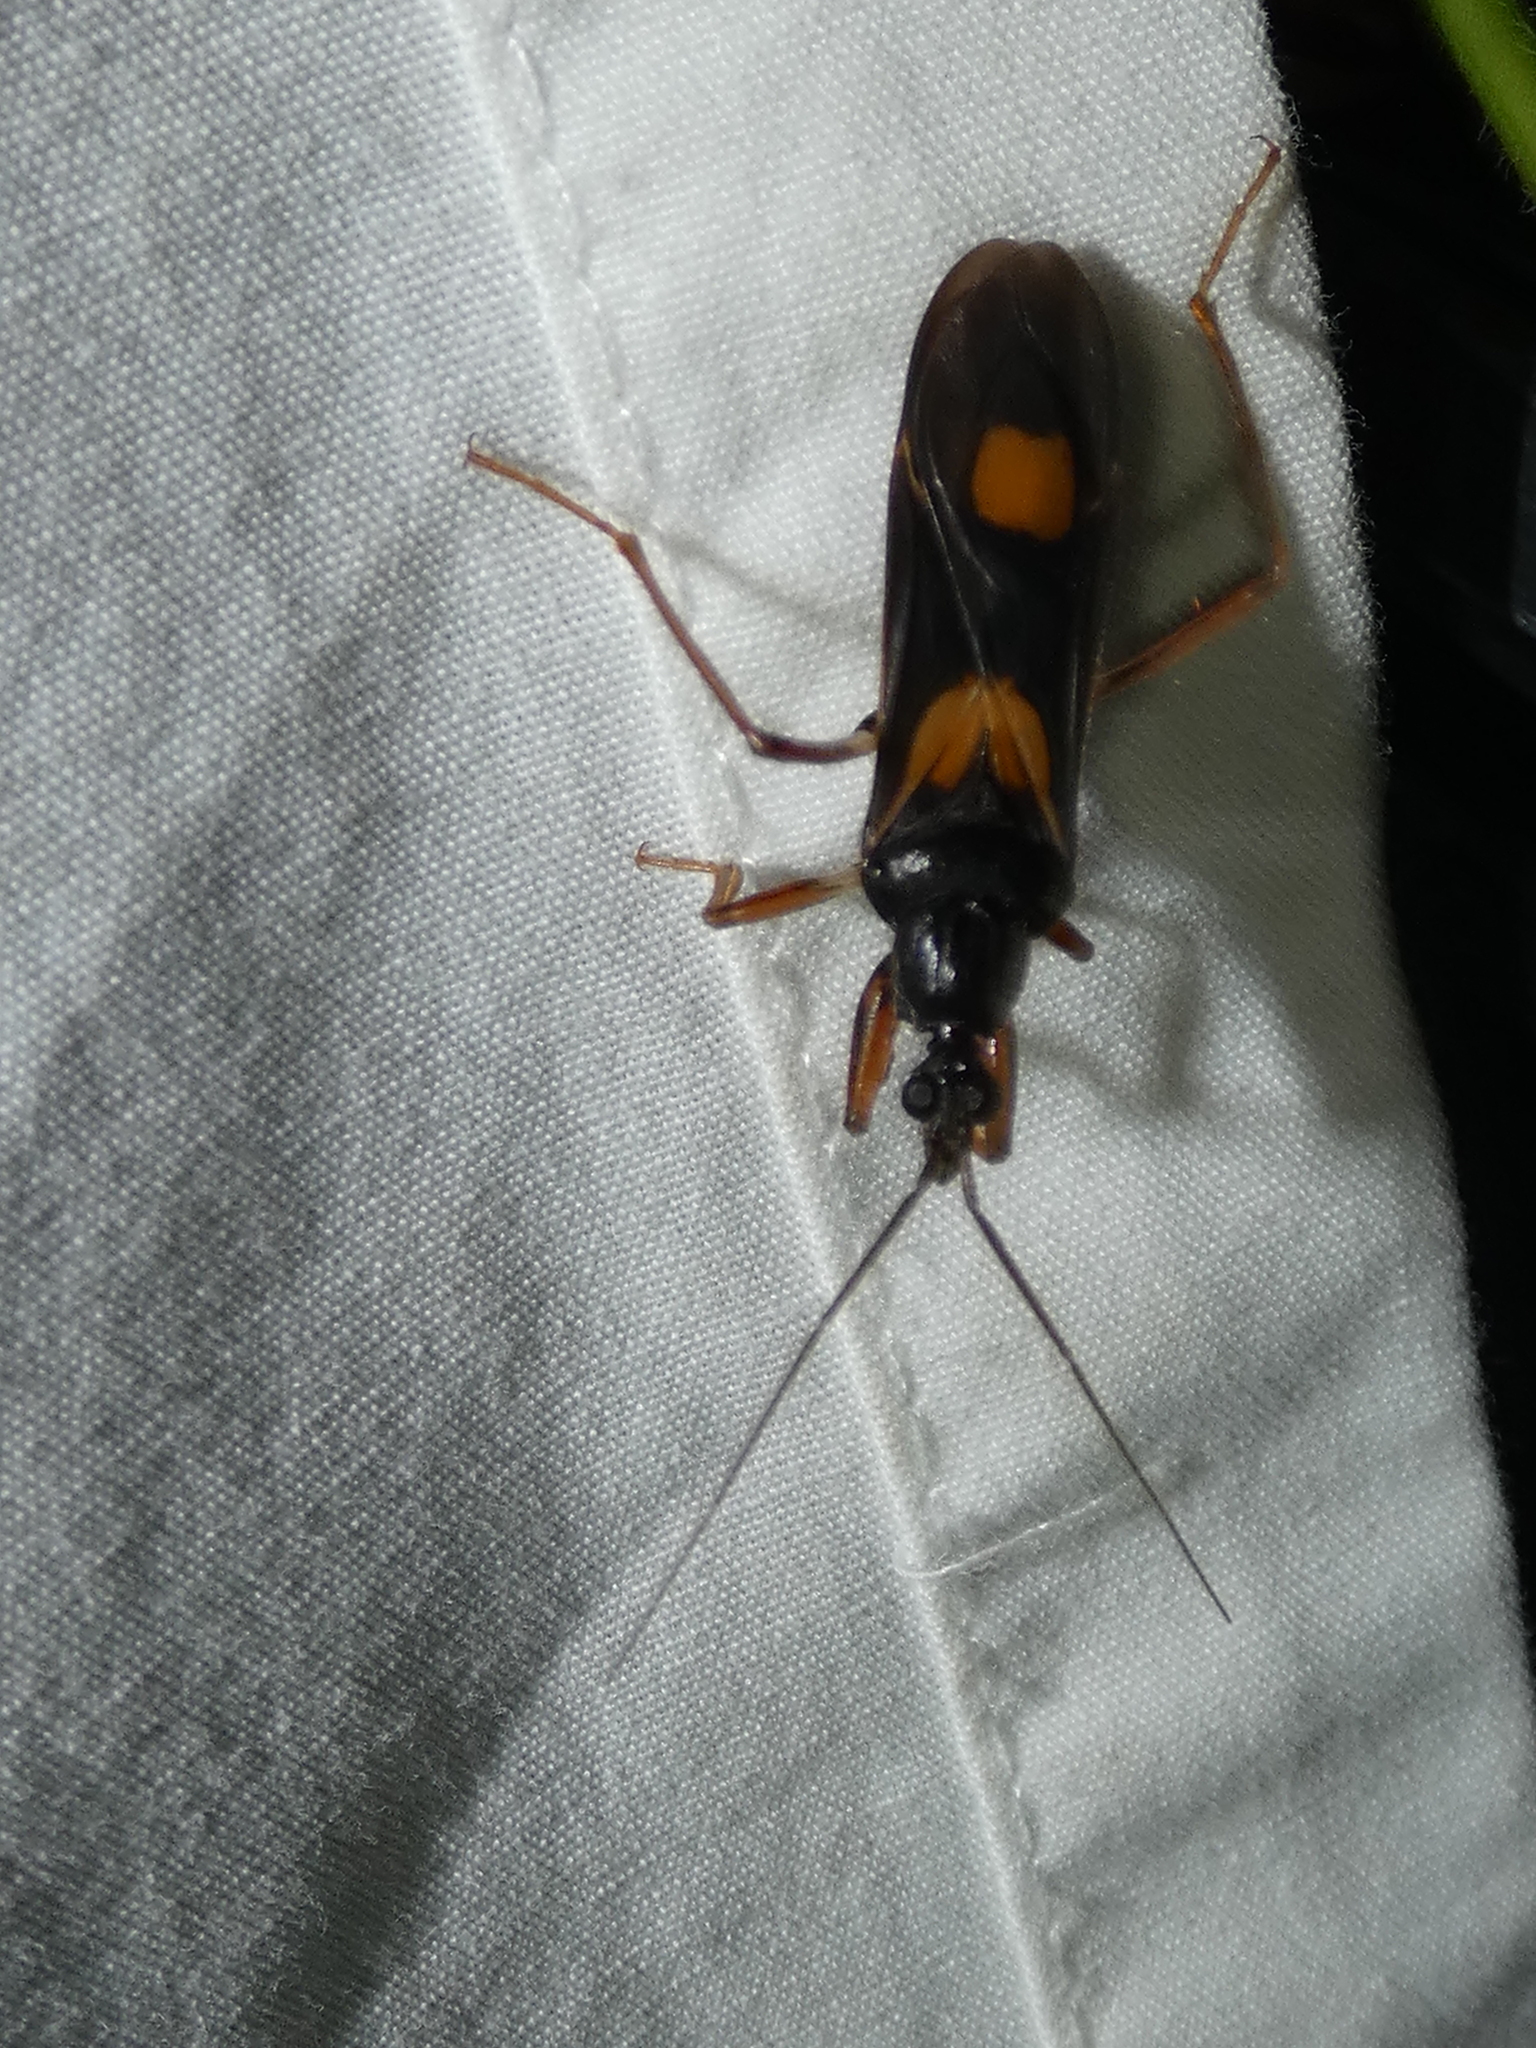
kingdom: Animalia
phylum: Arthropoda
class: Insecta
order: Hemiptera
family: Reduviidae
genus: Rasahus
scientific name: Rasahus hamatus
